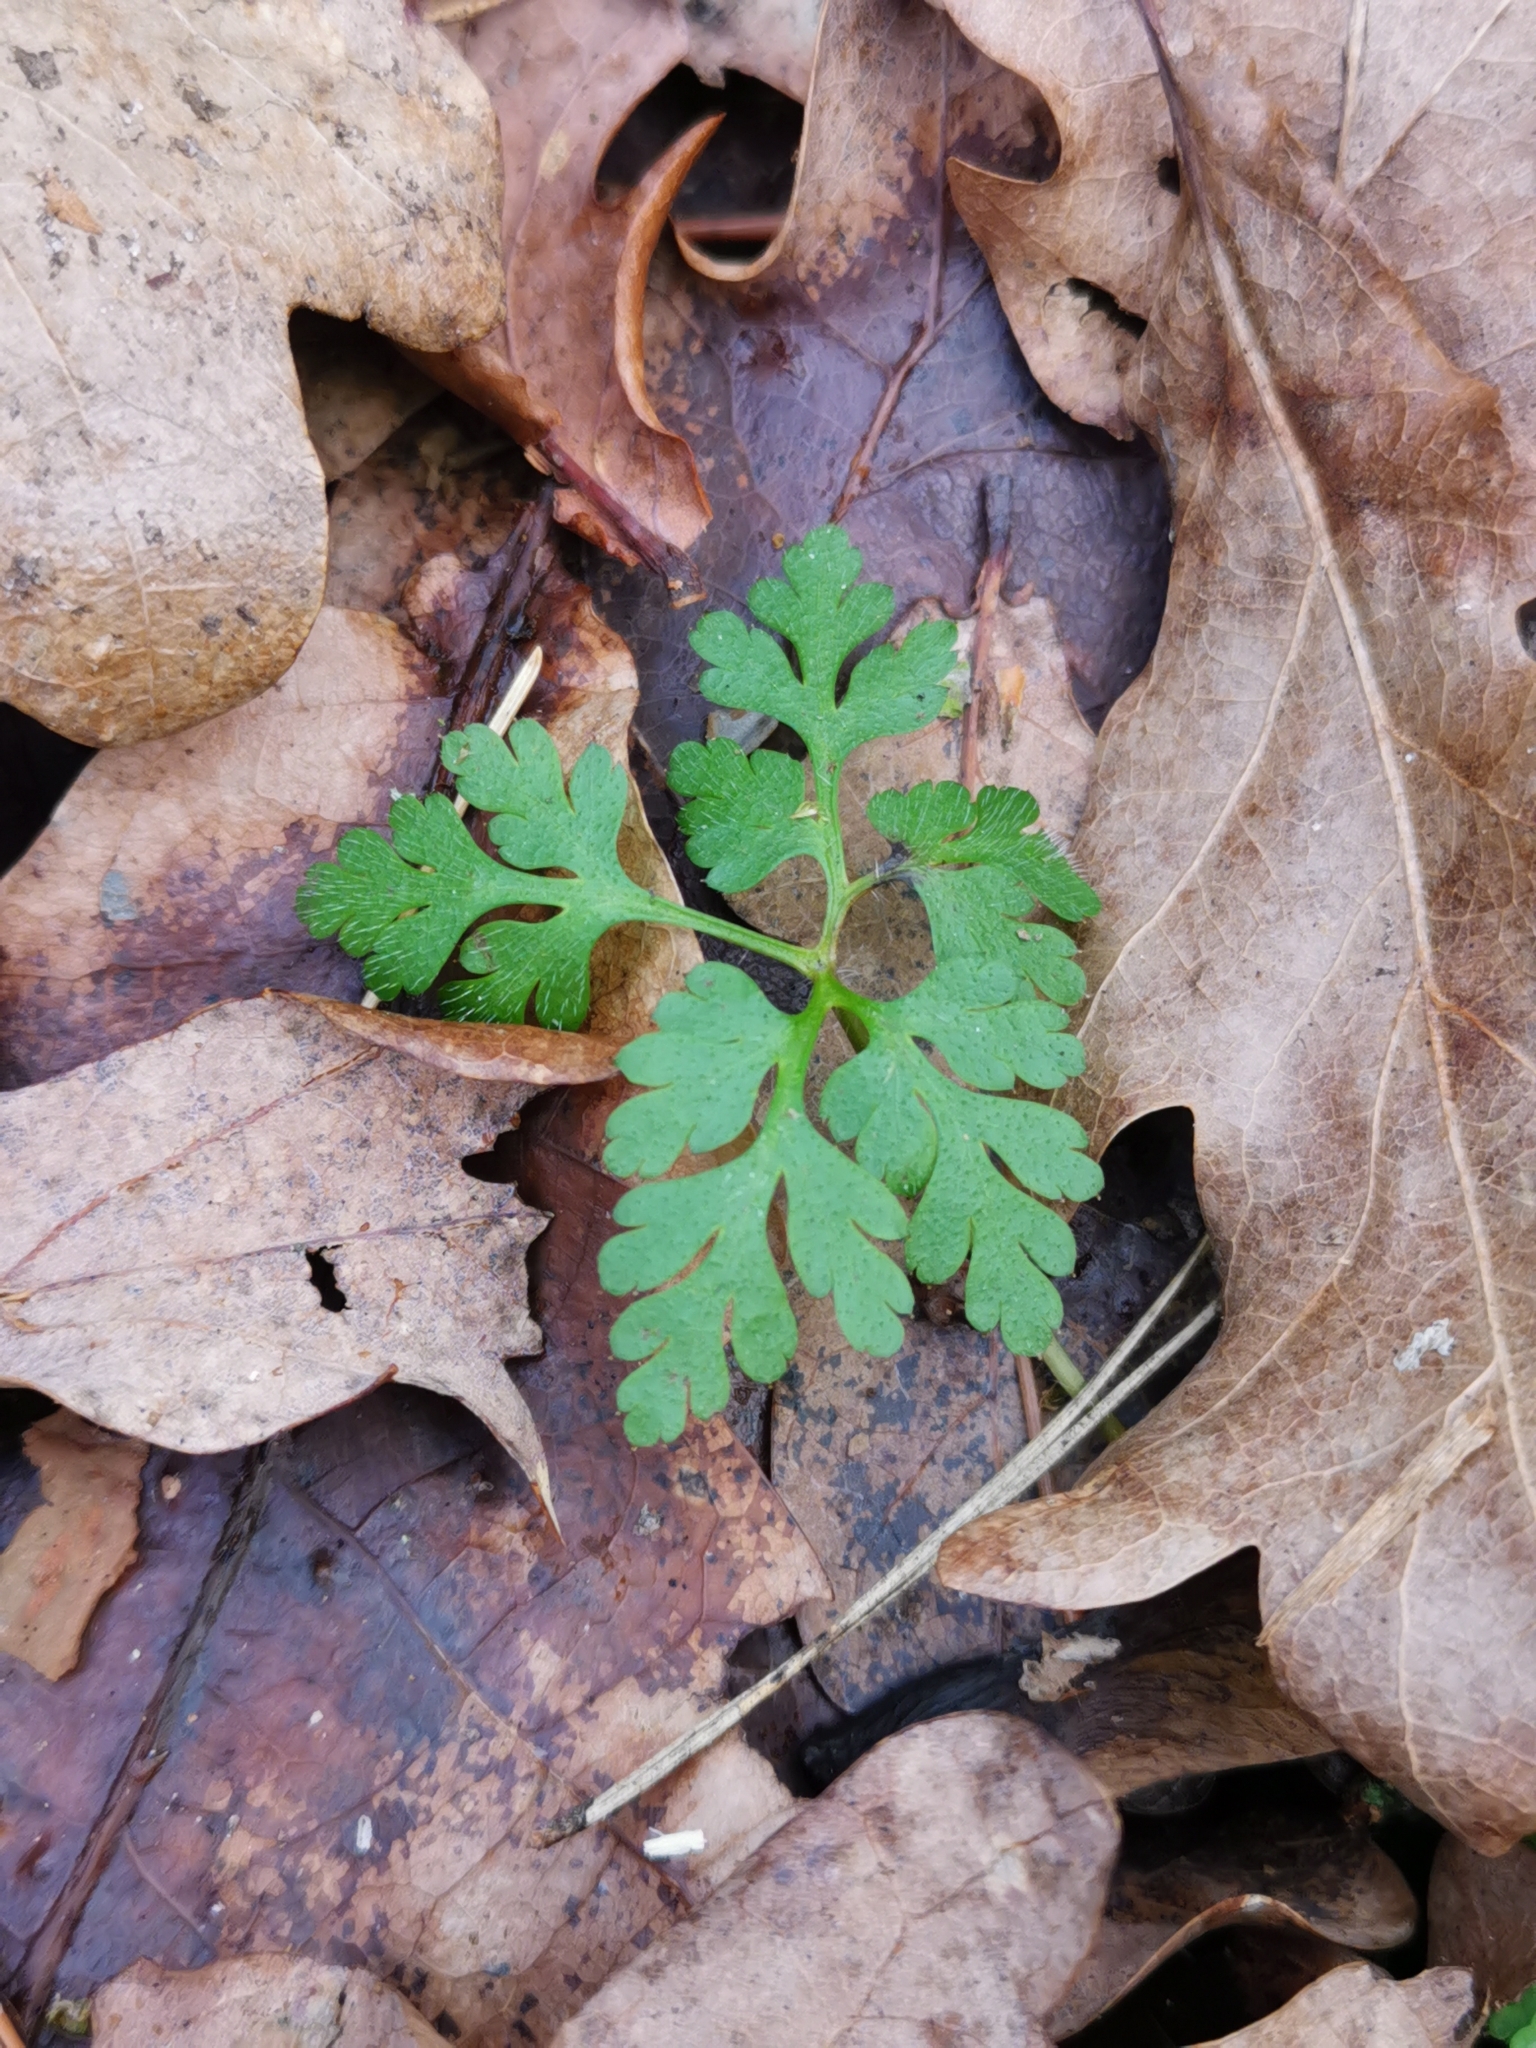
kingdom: Plantae
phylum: Tracheophyta
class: Magnoliopsida
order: Geraniales
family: Geraniaceae
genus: Geranium
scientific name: Geranium robertianum
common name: Herb-robert
